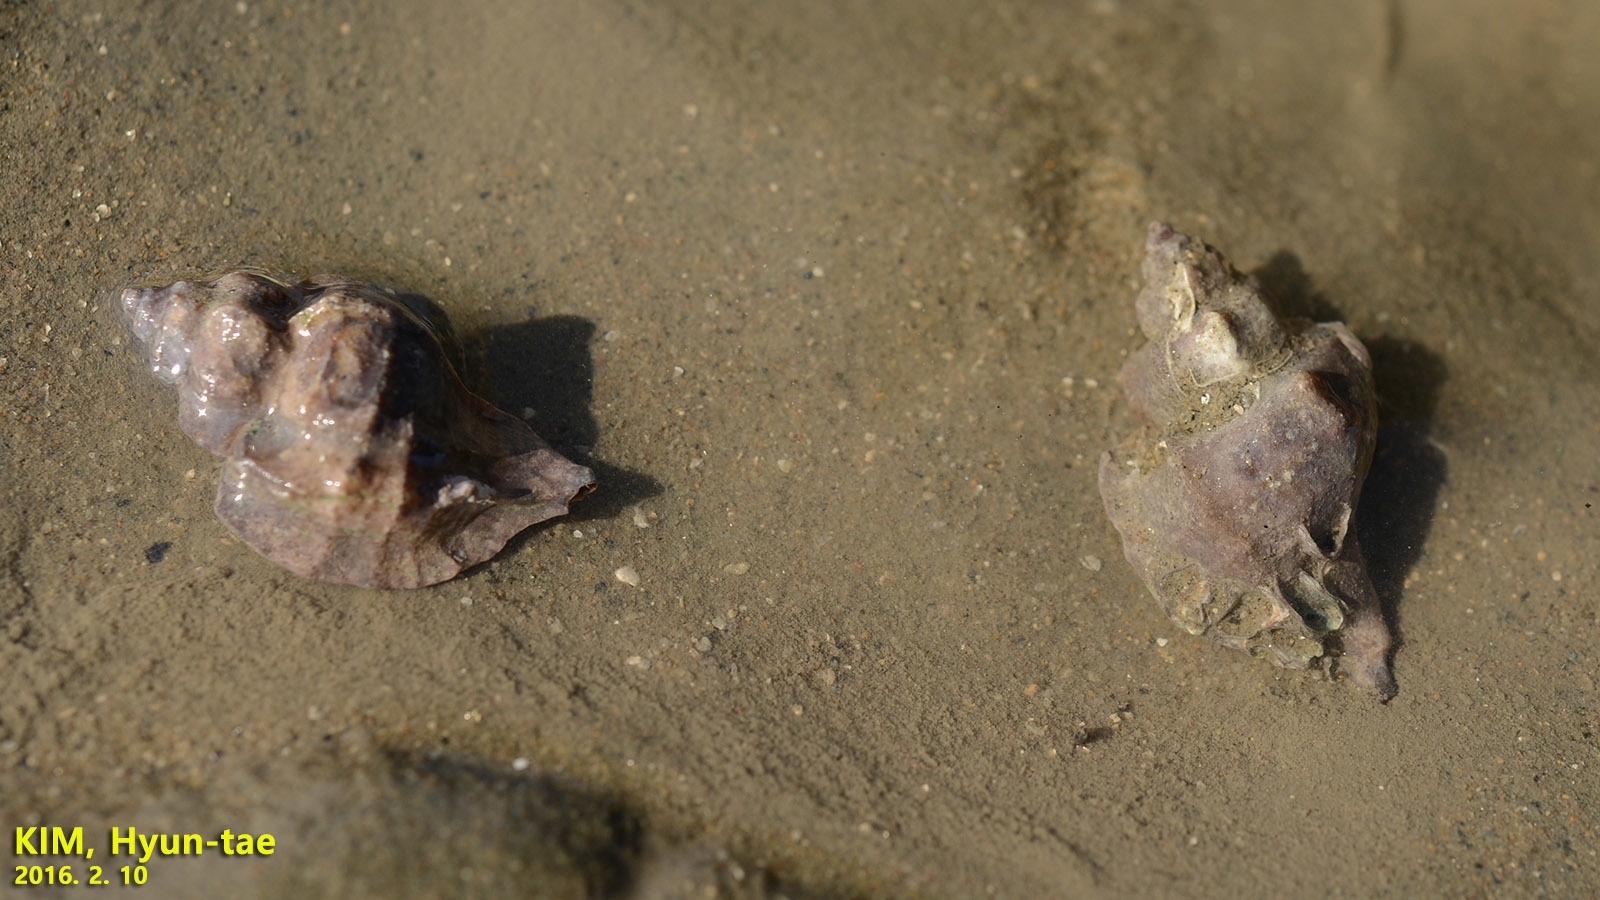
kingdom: Animalia
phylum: Mollusca
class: Gastropoda
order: Neogastropoda
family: Muricidae
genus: Ocinebrellus
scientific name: Ocinebrellus inornatus
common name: Asian drill snail
